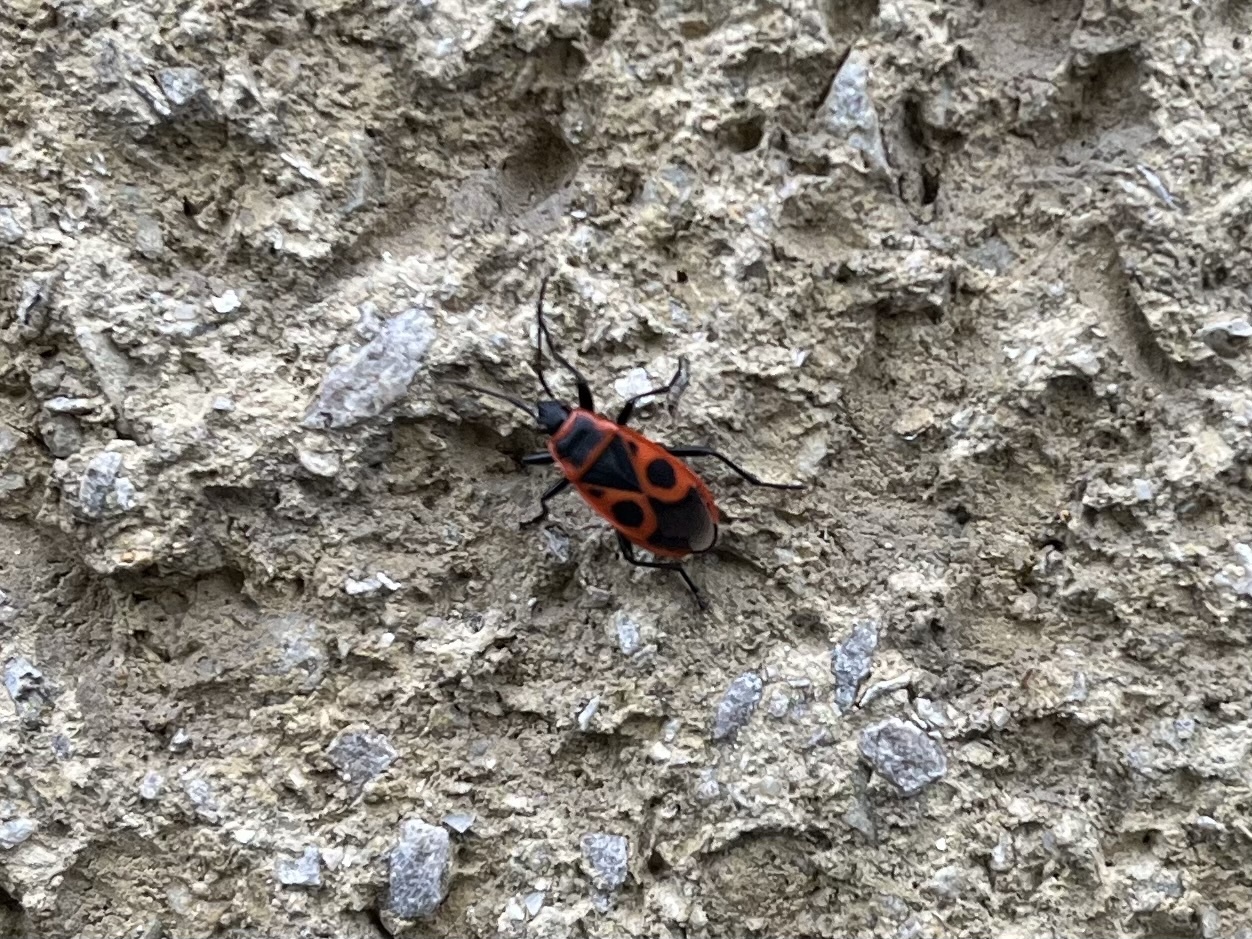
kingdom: Animalia
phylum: Arthropoda
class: Insecta
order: Hemiptera
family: Pyrrhocoridae
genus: Pyrrhocoris
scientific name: Pyrrhocoris apterus
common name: Firebug
